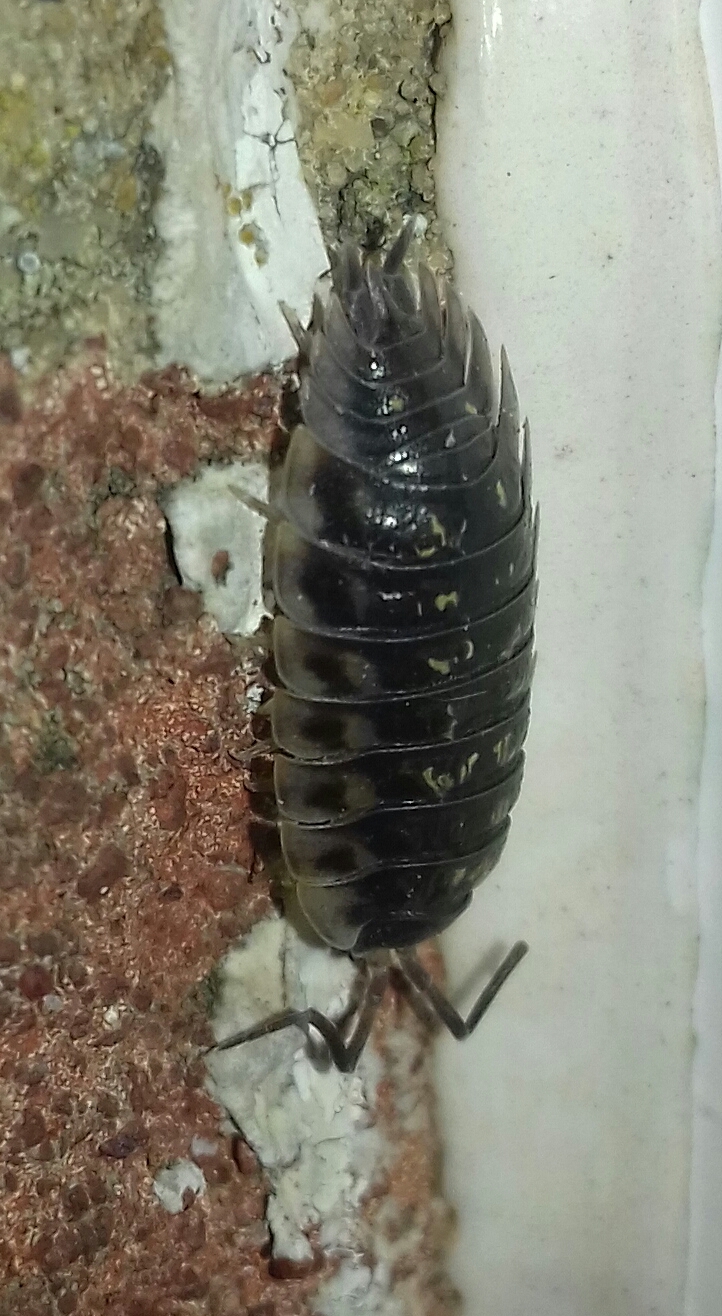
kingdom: Animalia
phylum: Arthropoda
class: Malacostraca
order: Isopoda
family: Oniscidae
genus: Oniscus
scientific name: Oniscus asellus
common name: Common shiny woodlouse
